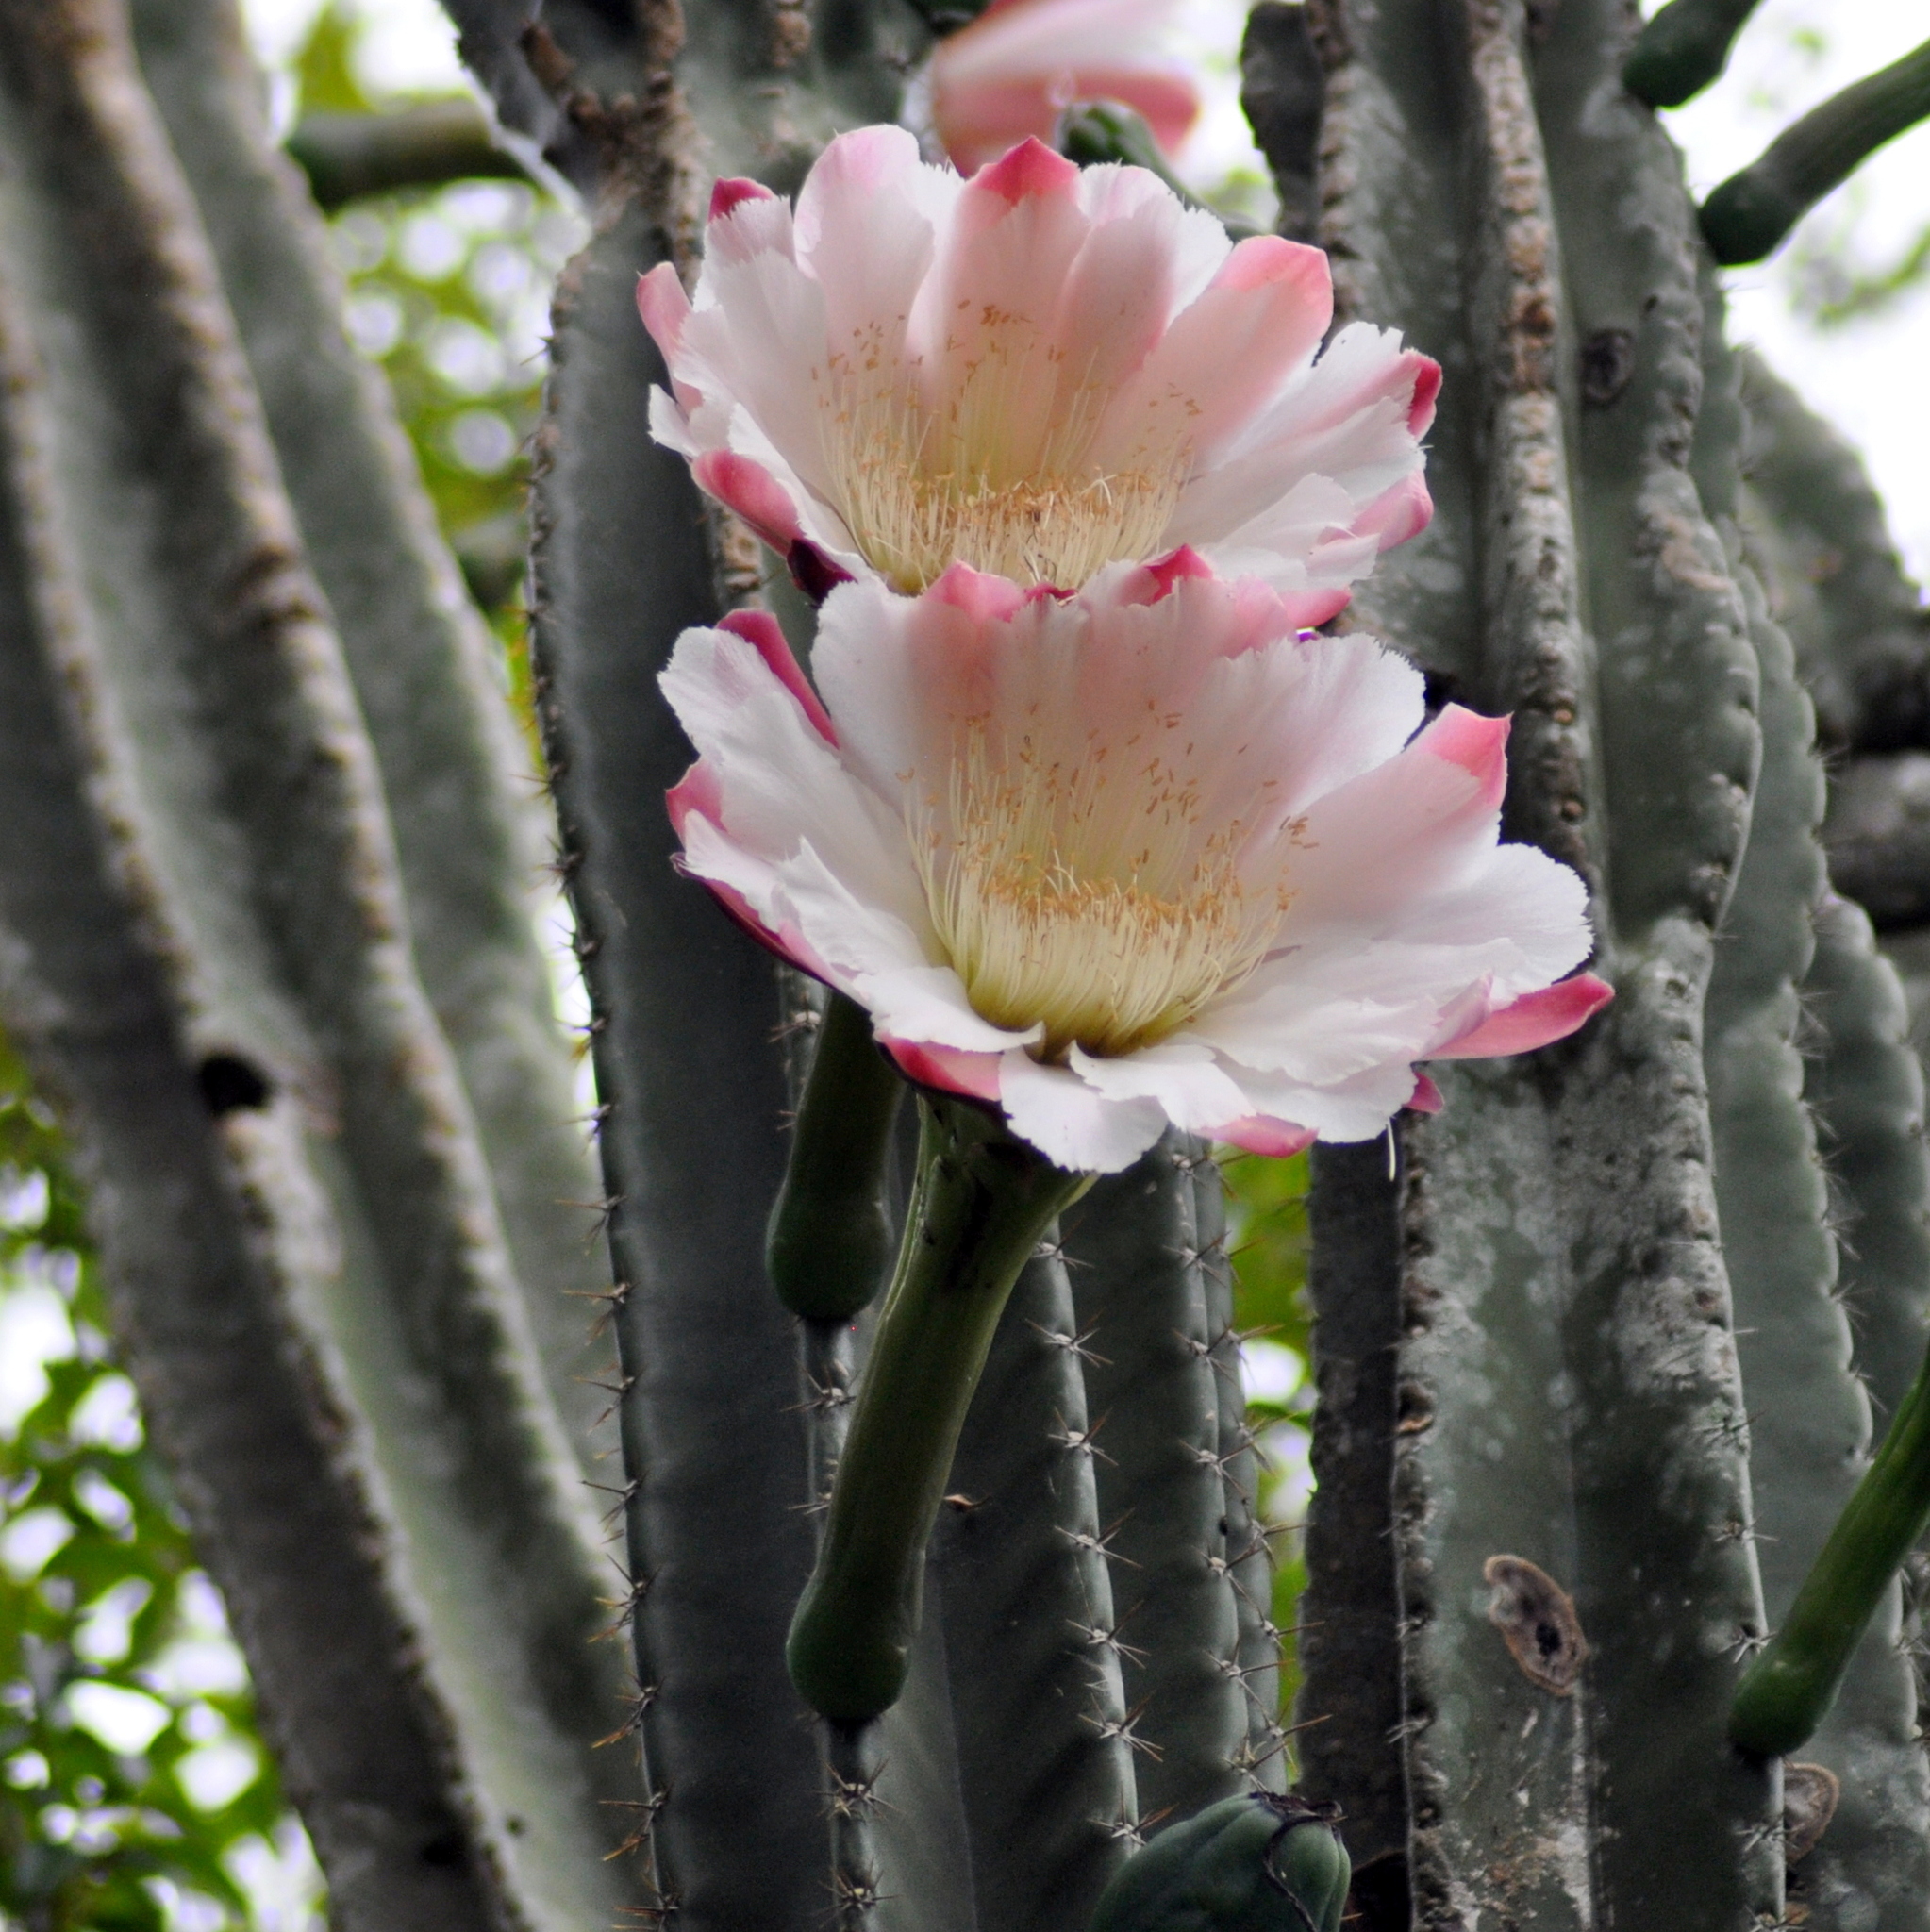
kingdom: Plantae
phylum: Tracheophyta
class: Magnoliopsida
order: Caryophyllales
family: Cactaceae
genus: Cereus
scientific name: Cereus hildmannianus
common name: Hedge cactus
